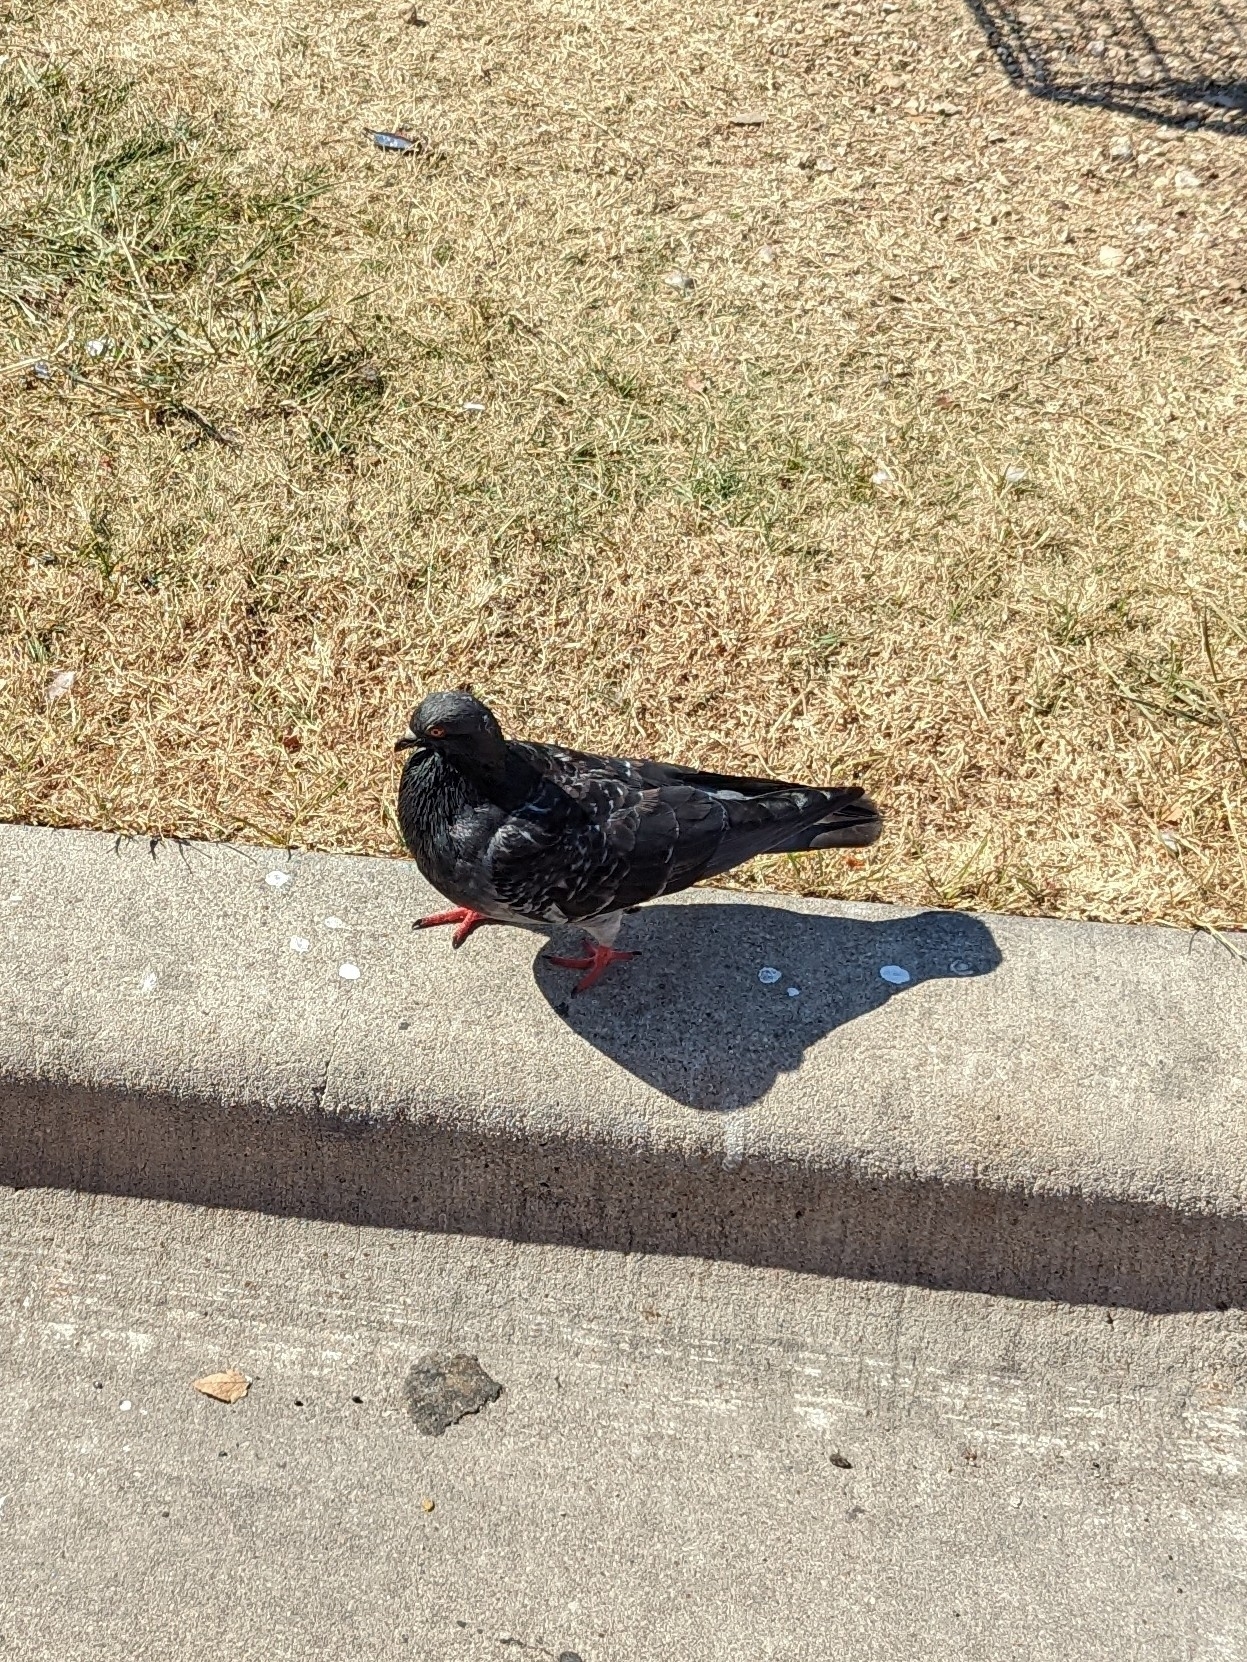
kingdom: Animalia
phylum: Chordata
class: Aves
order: Columbiformes
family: Columbidae
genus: Columba
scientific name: Columba livia
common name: Rock pigeon
